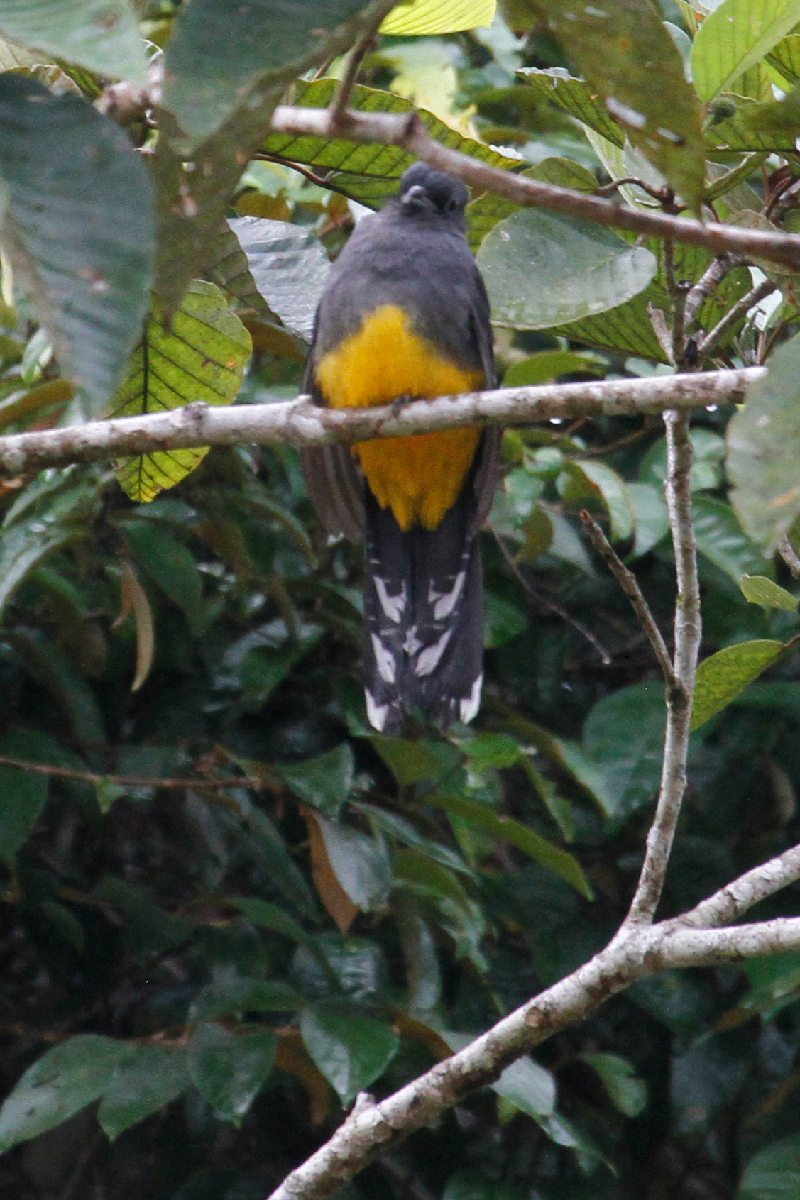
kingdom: Animalia
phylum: Chordata
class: Aves
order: Trogoniformes
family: Trogonidae
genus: Trogon
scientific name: Trogon melanocephalus
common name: Black-headed trogon
